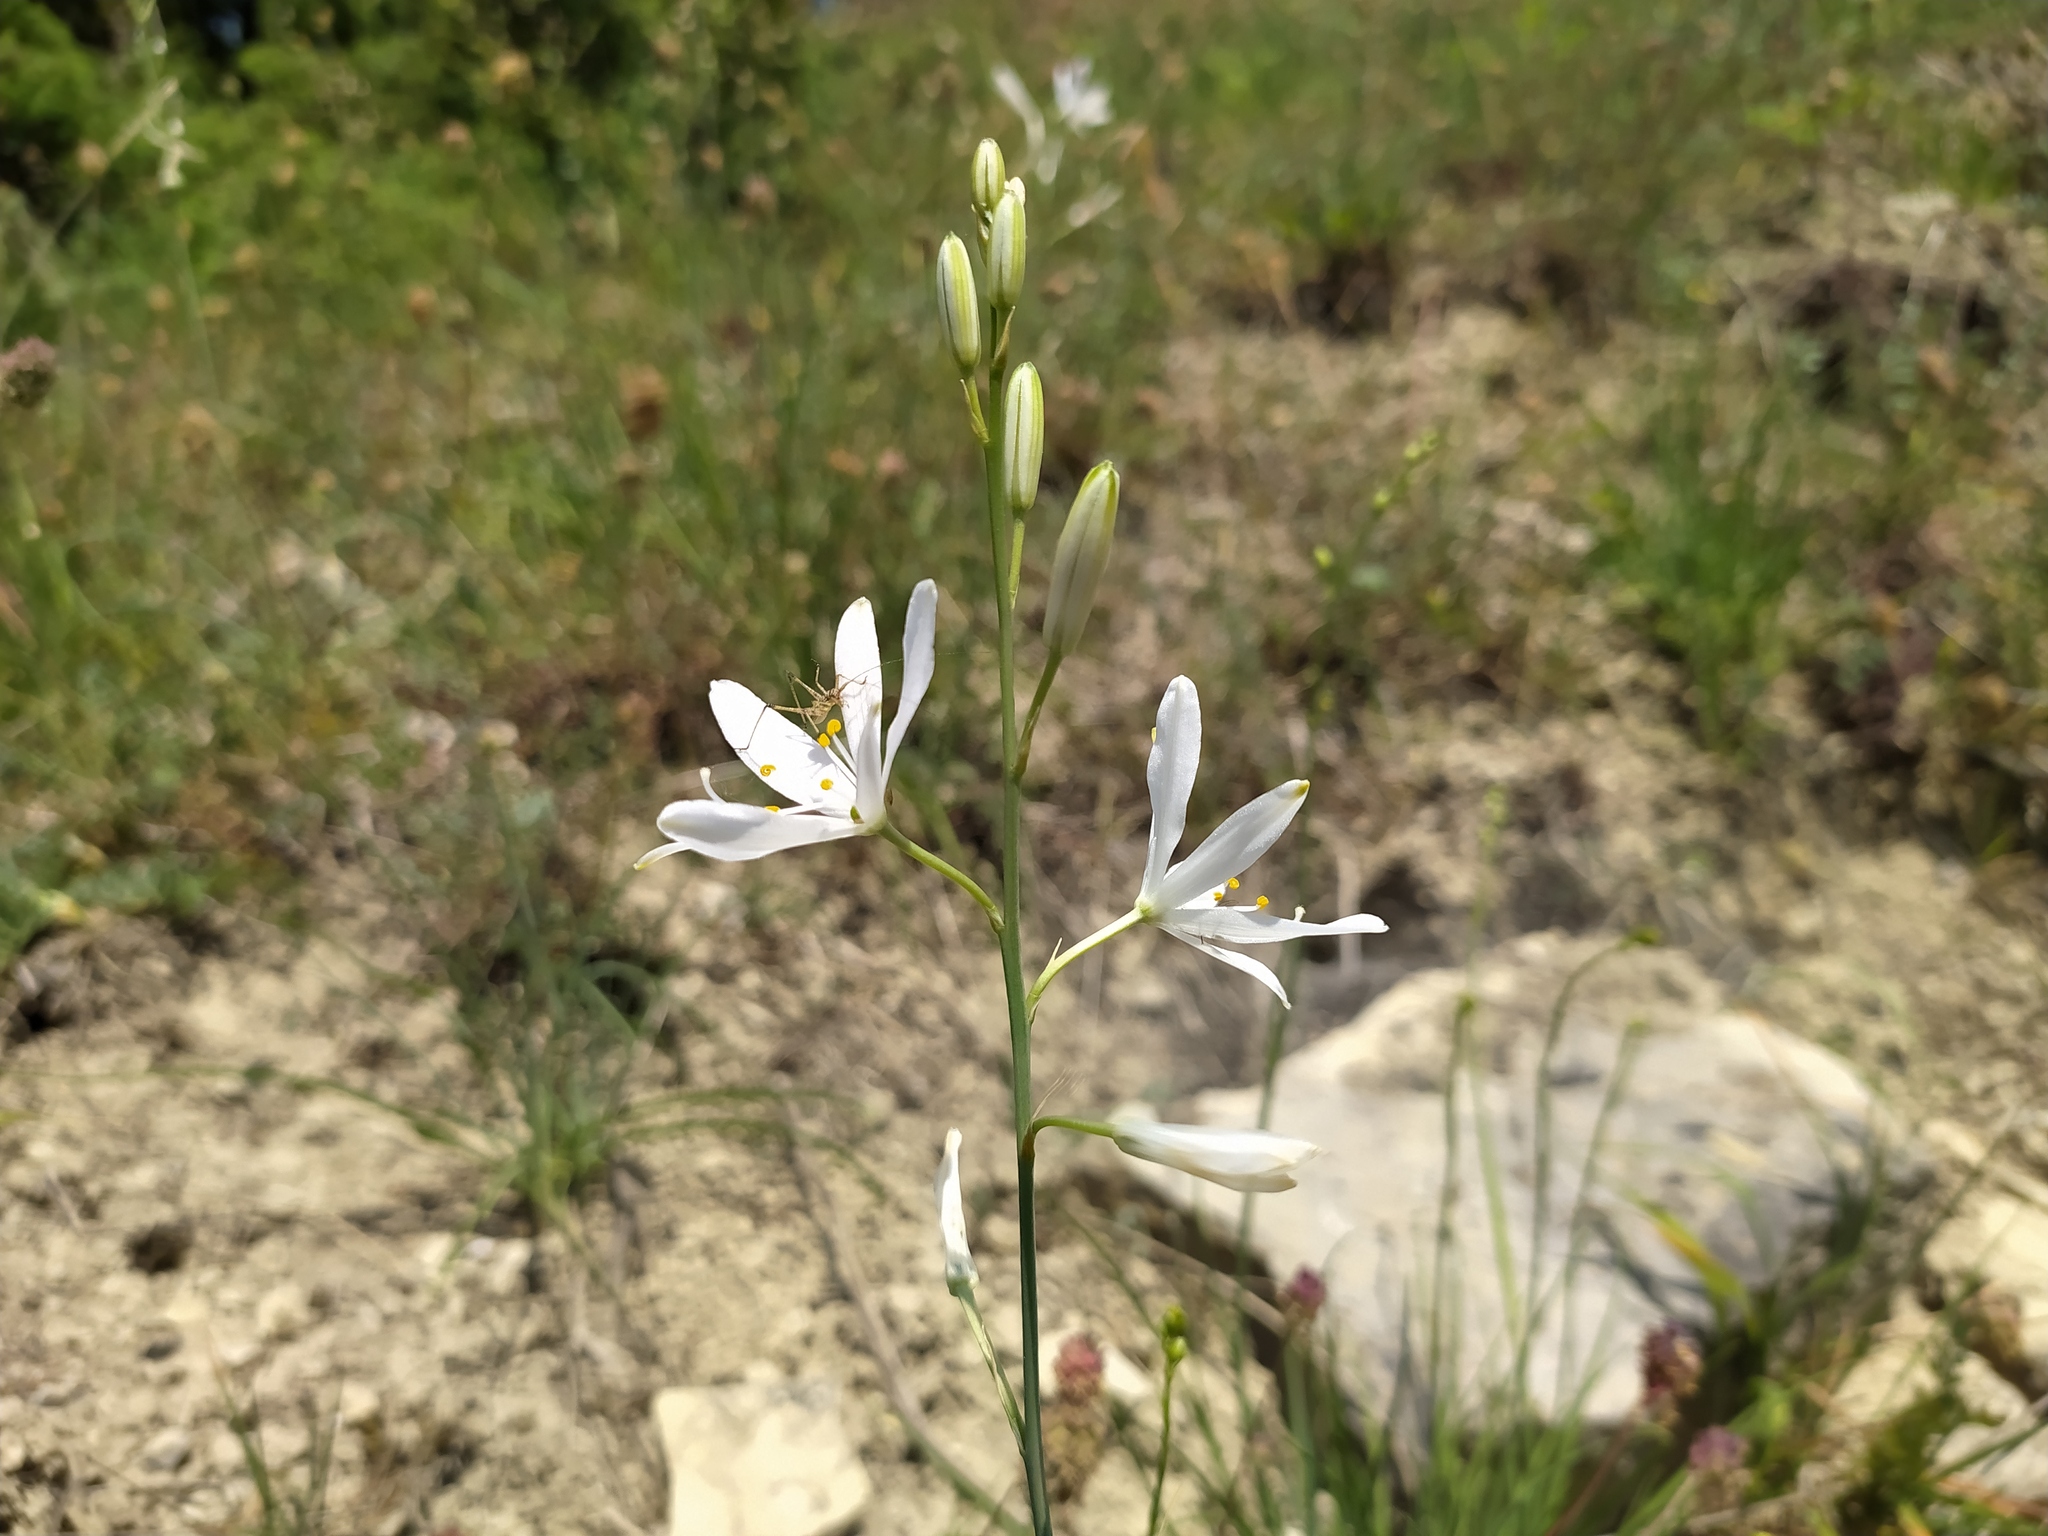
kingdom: Plantae
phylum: Tracheophyta
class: Liliopsida
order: Asparagales
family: Asparagaceae
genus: Anthericum
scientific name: Anthericum liliago
